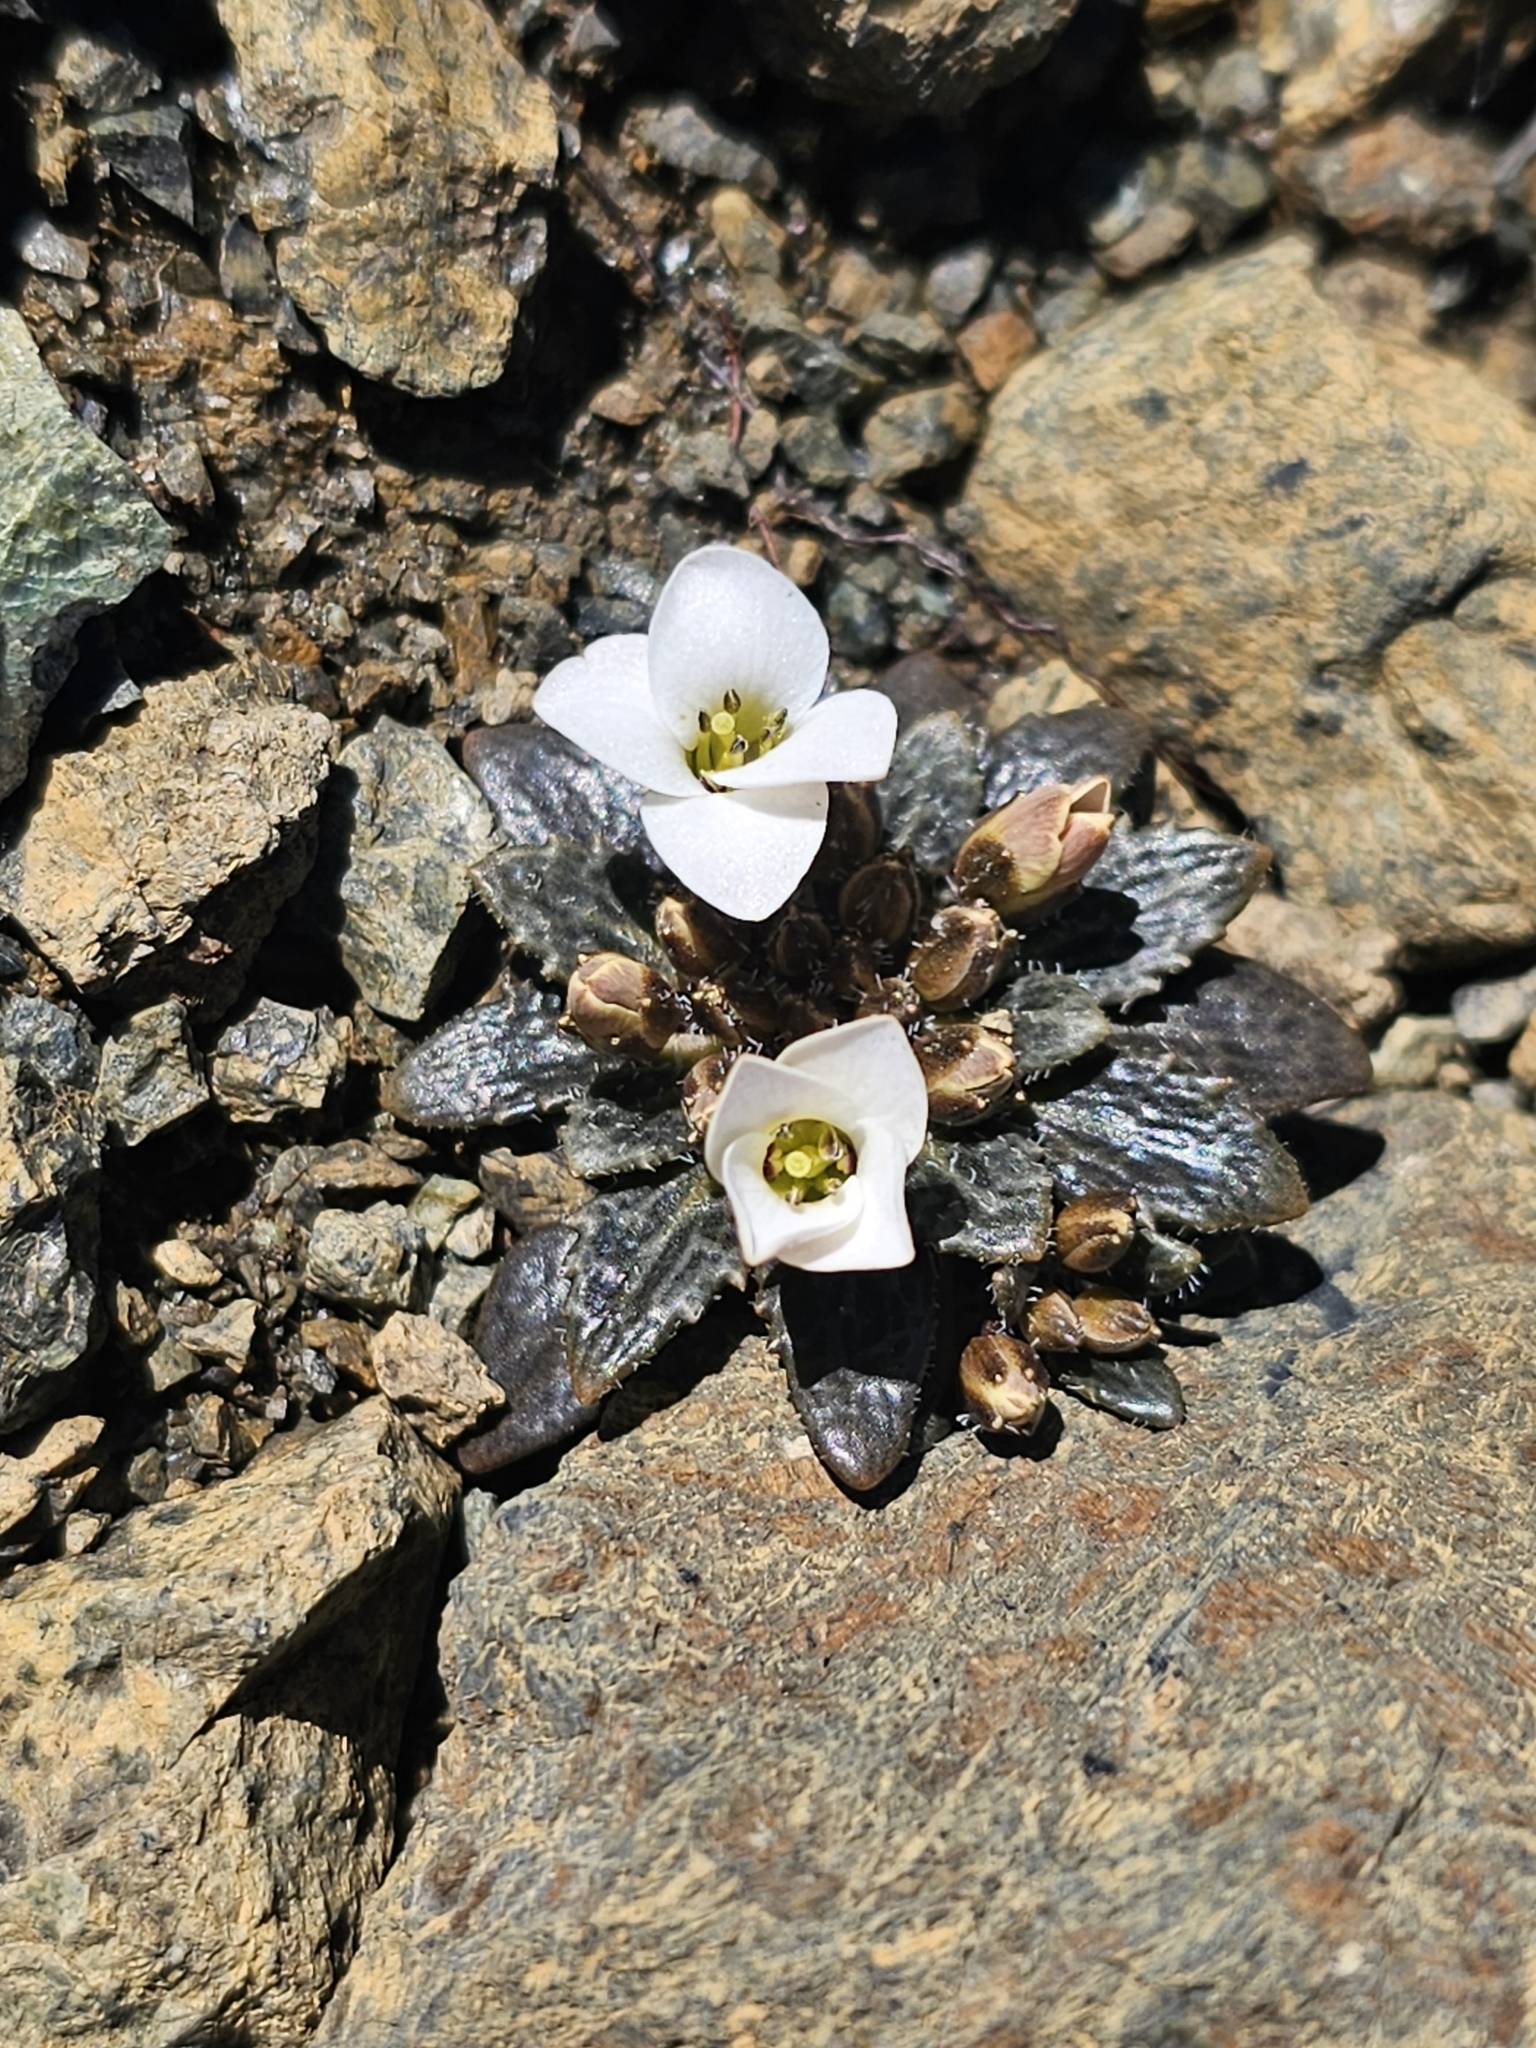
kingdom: Plantae
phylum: Tracheophyta
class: Magnoliopsida
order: Brassicales
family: Brassicaceae
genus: Notothlaspi
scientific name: Notothlaspi australe
